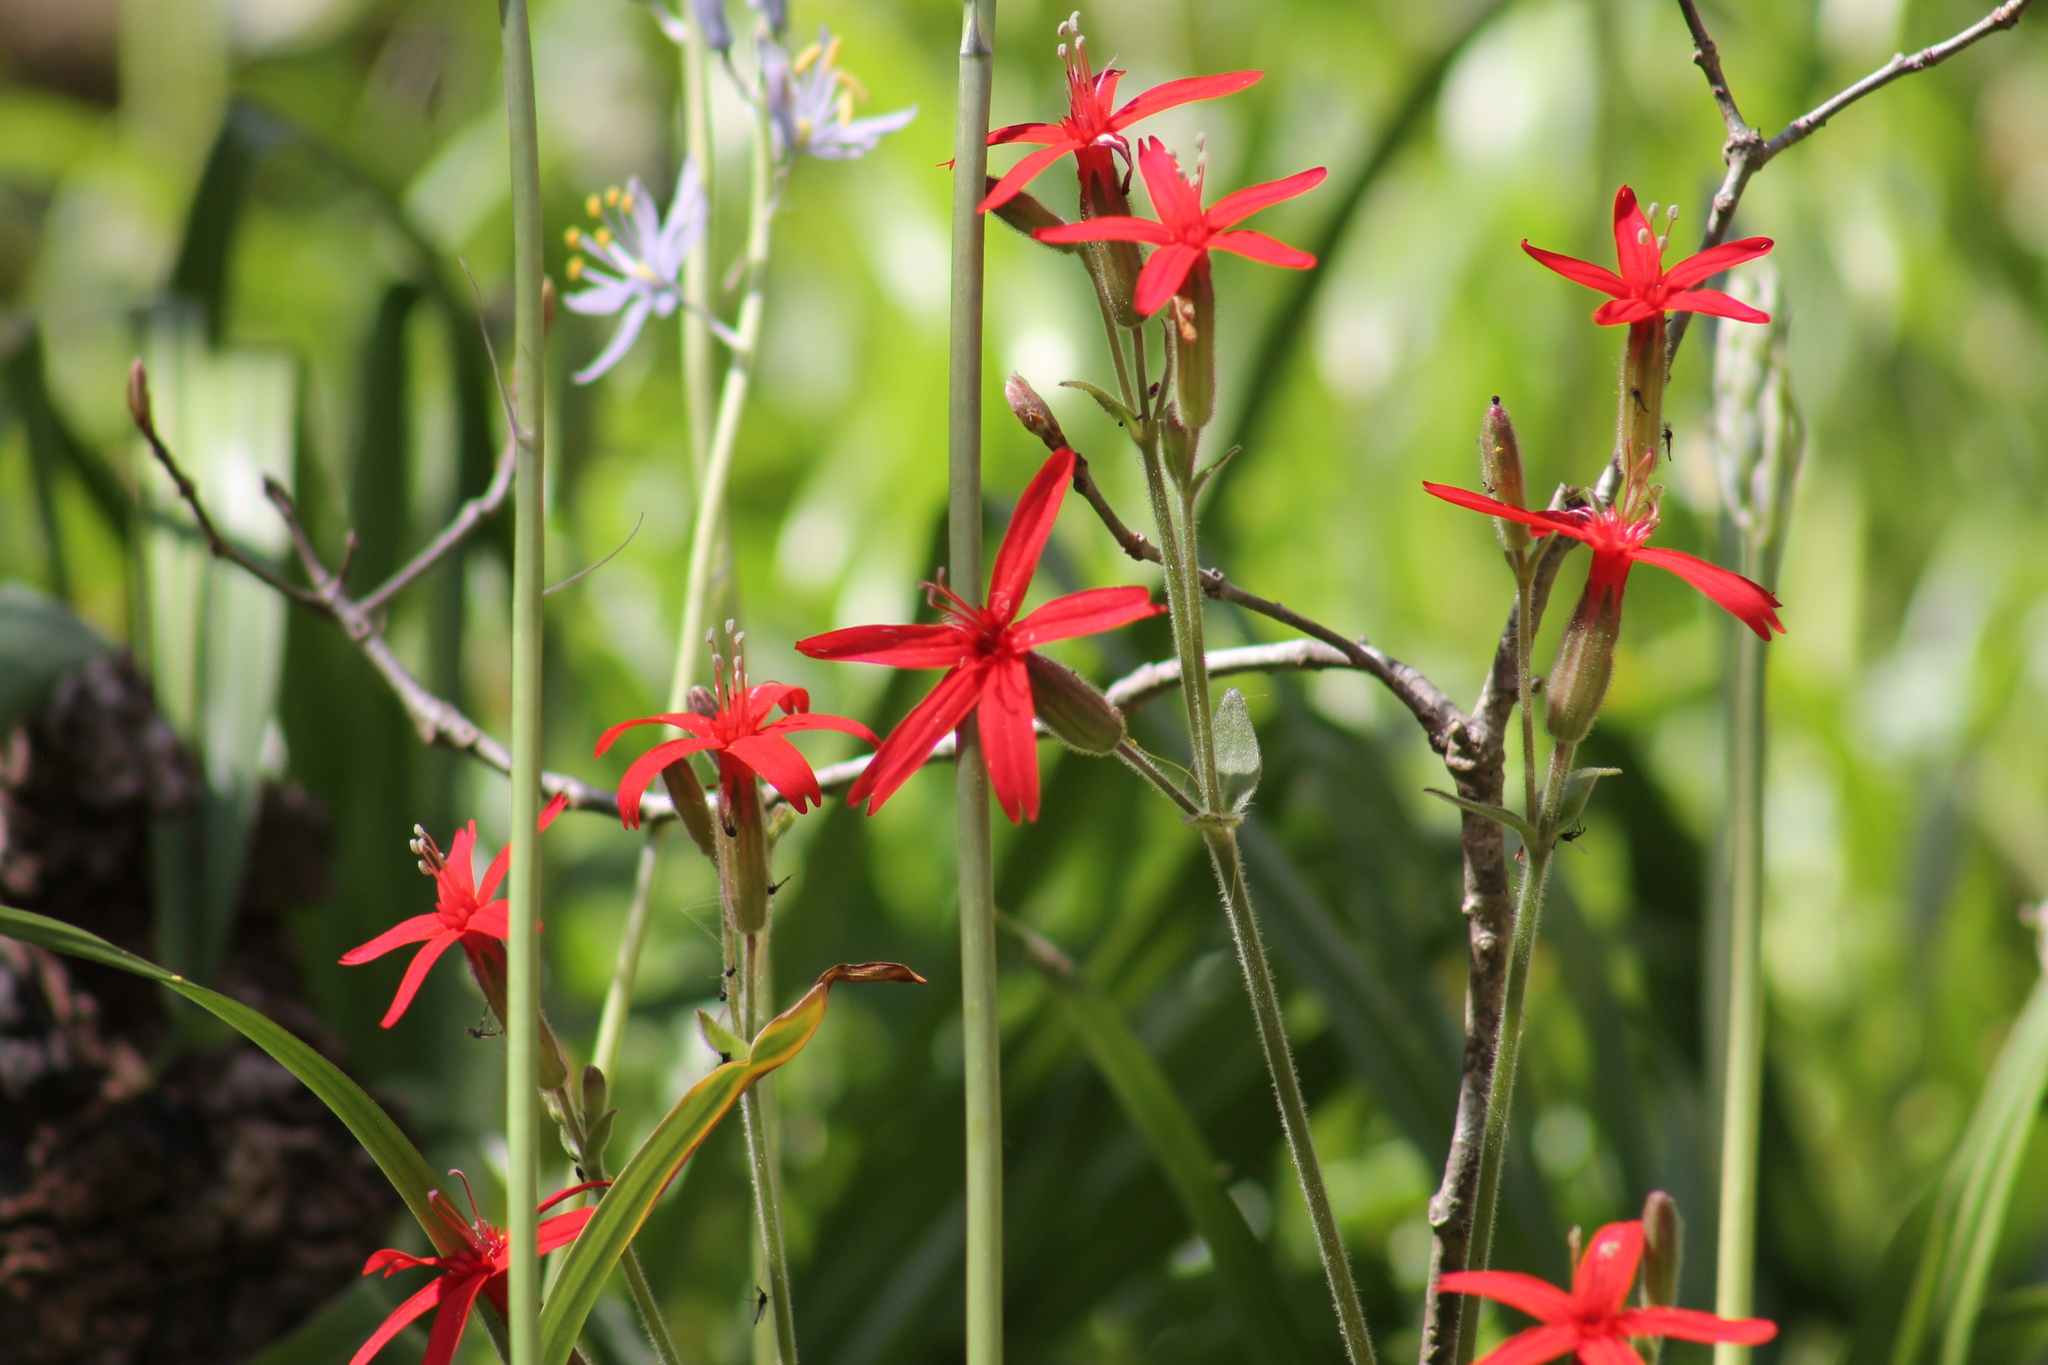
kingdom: Plantae
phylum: Tracheophyta
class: Magnoliopsida
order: Caryophyllales
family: Caryophyllaceae
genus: Silene
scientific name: Silene virginica
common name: Fire-pink
